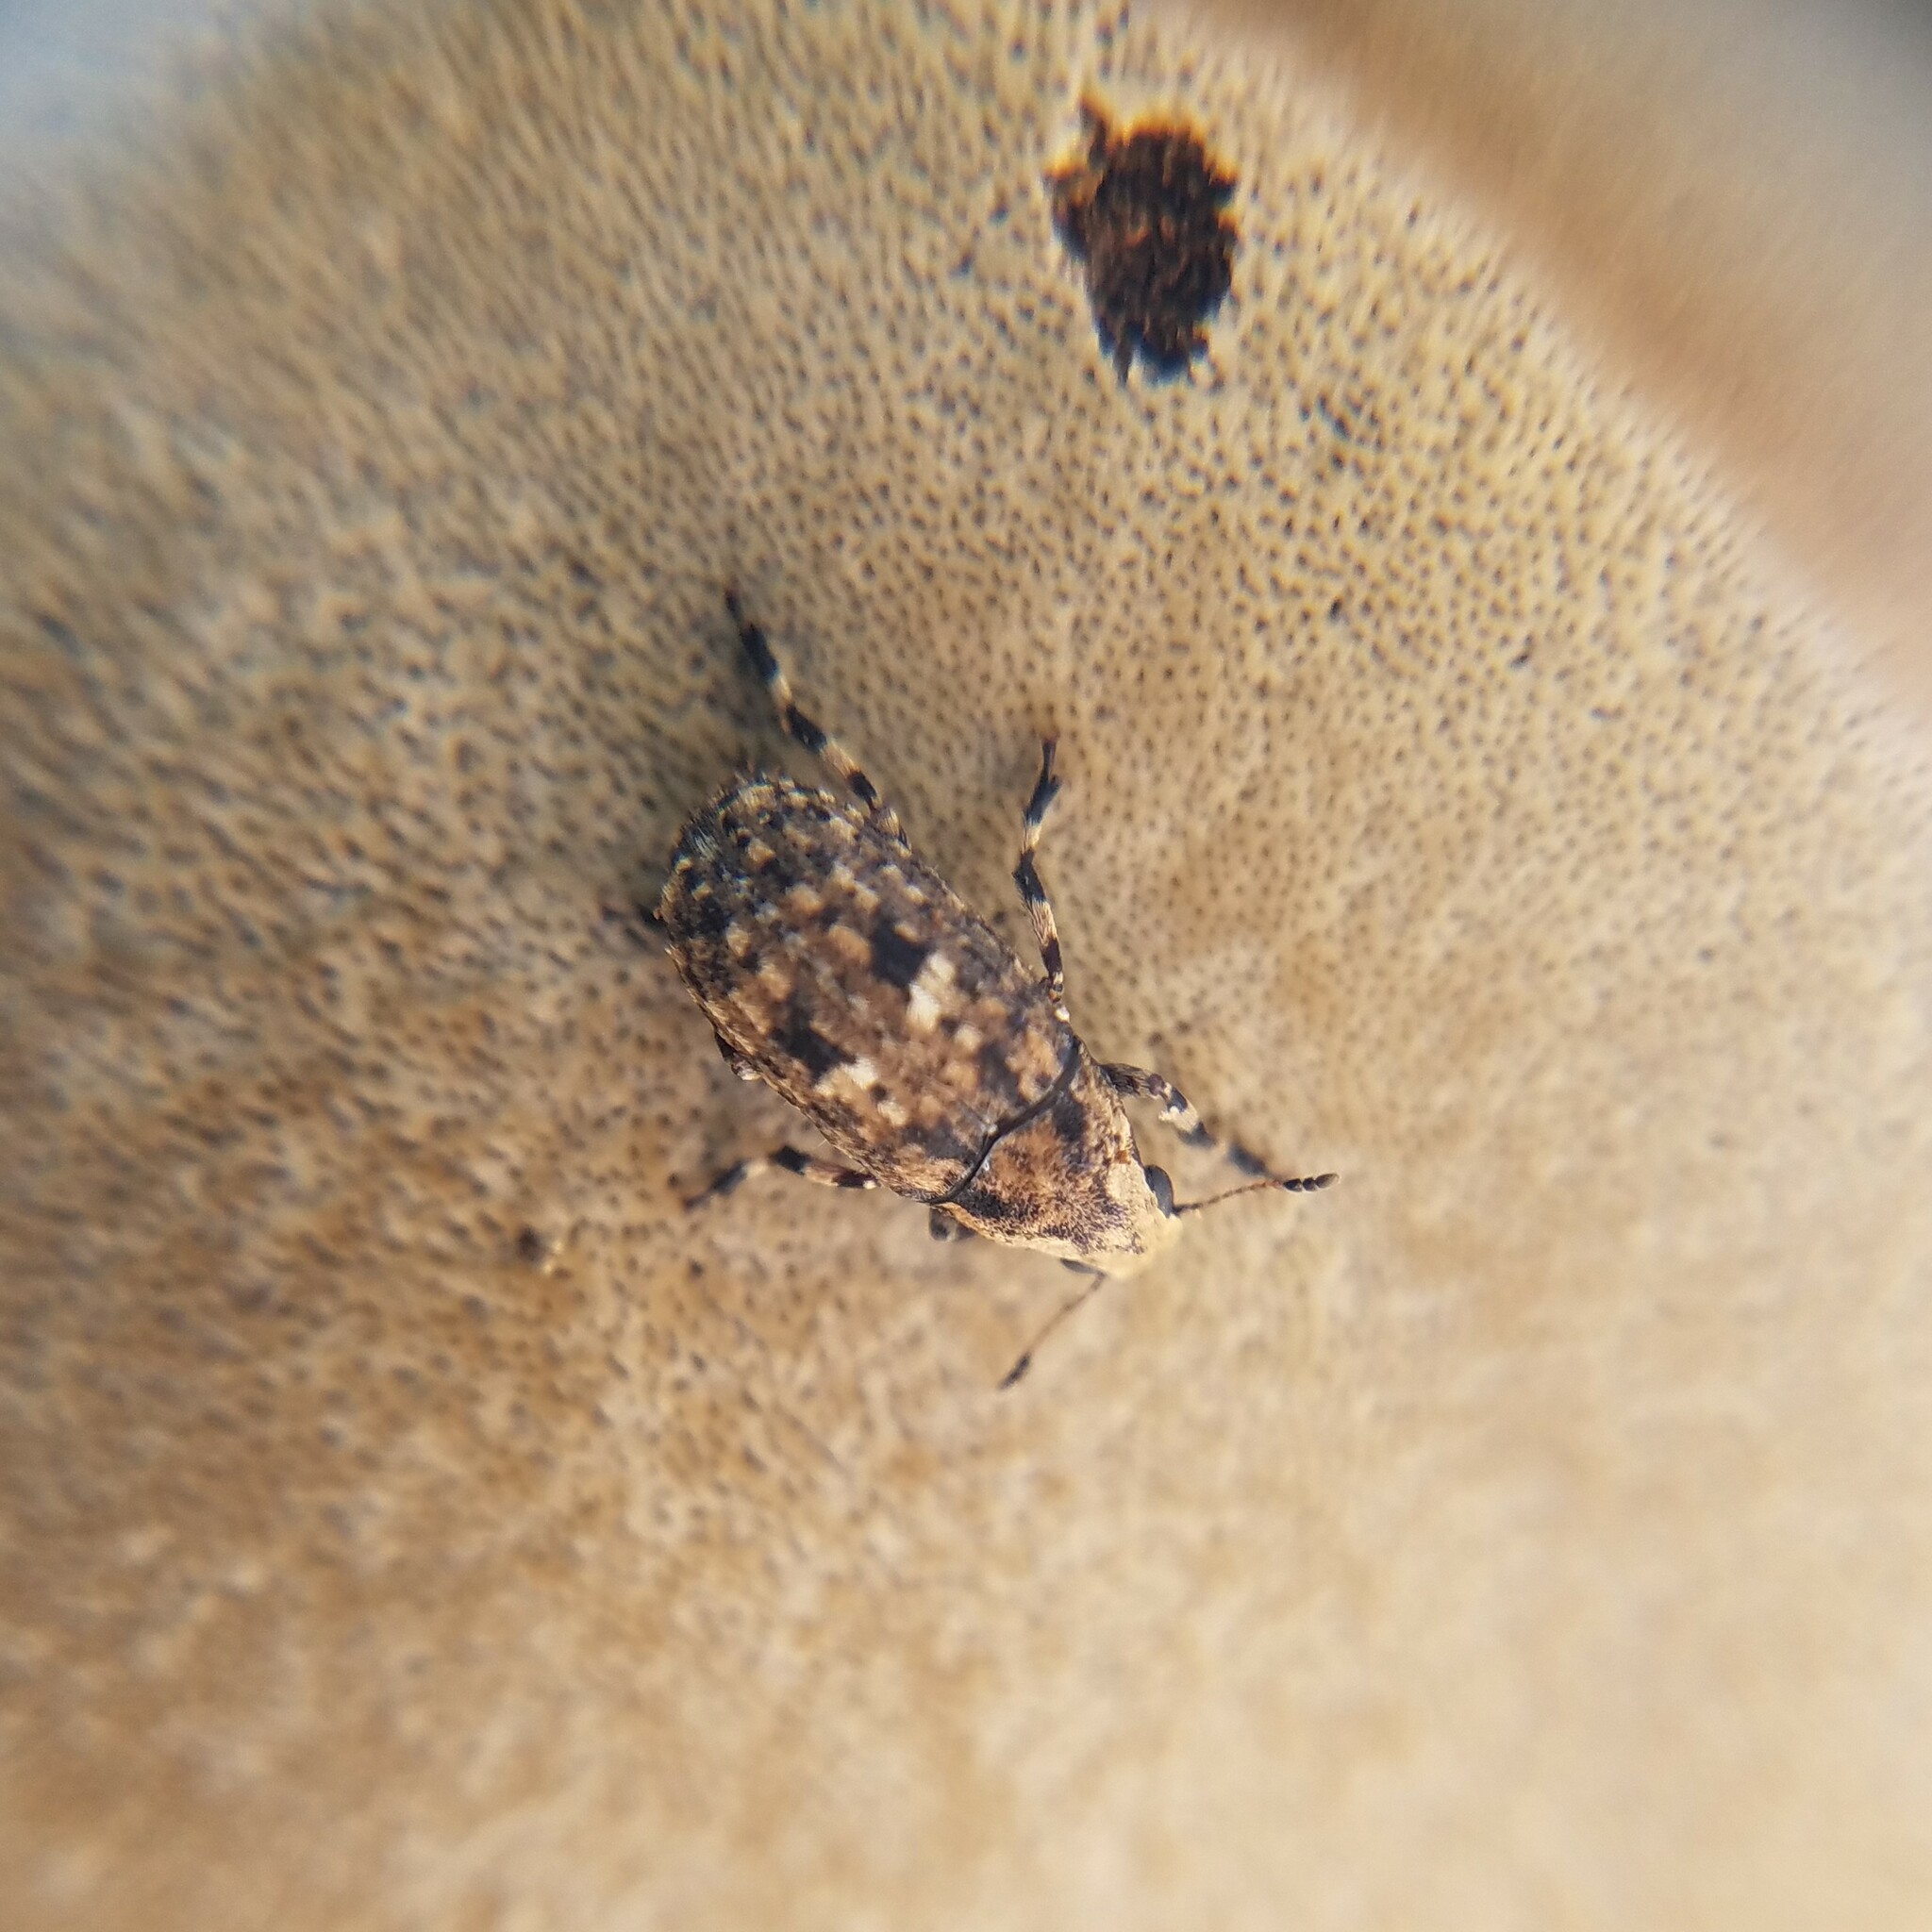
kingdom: Animalia
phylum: Arthropoda
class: Insecta
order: Coleoptera
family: Anthribidae
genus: Euparius
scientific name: Euparius marmoreus
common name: Marbled fungus weevil
